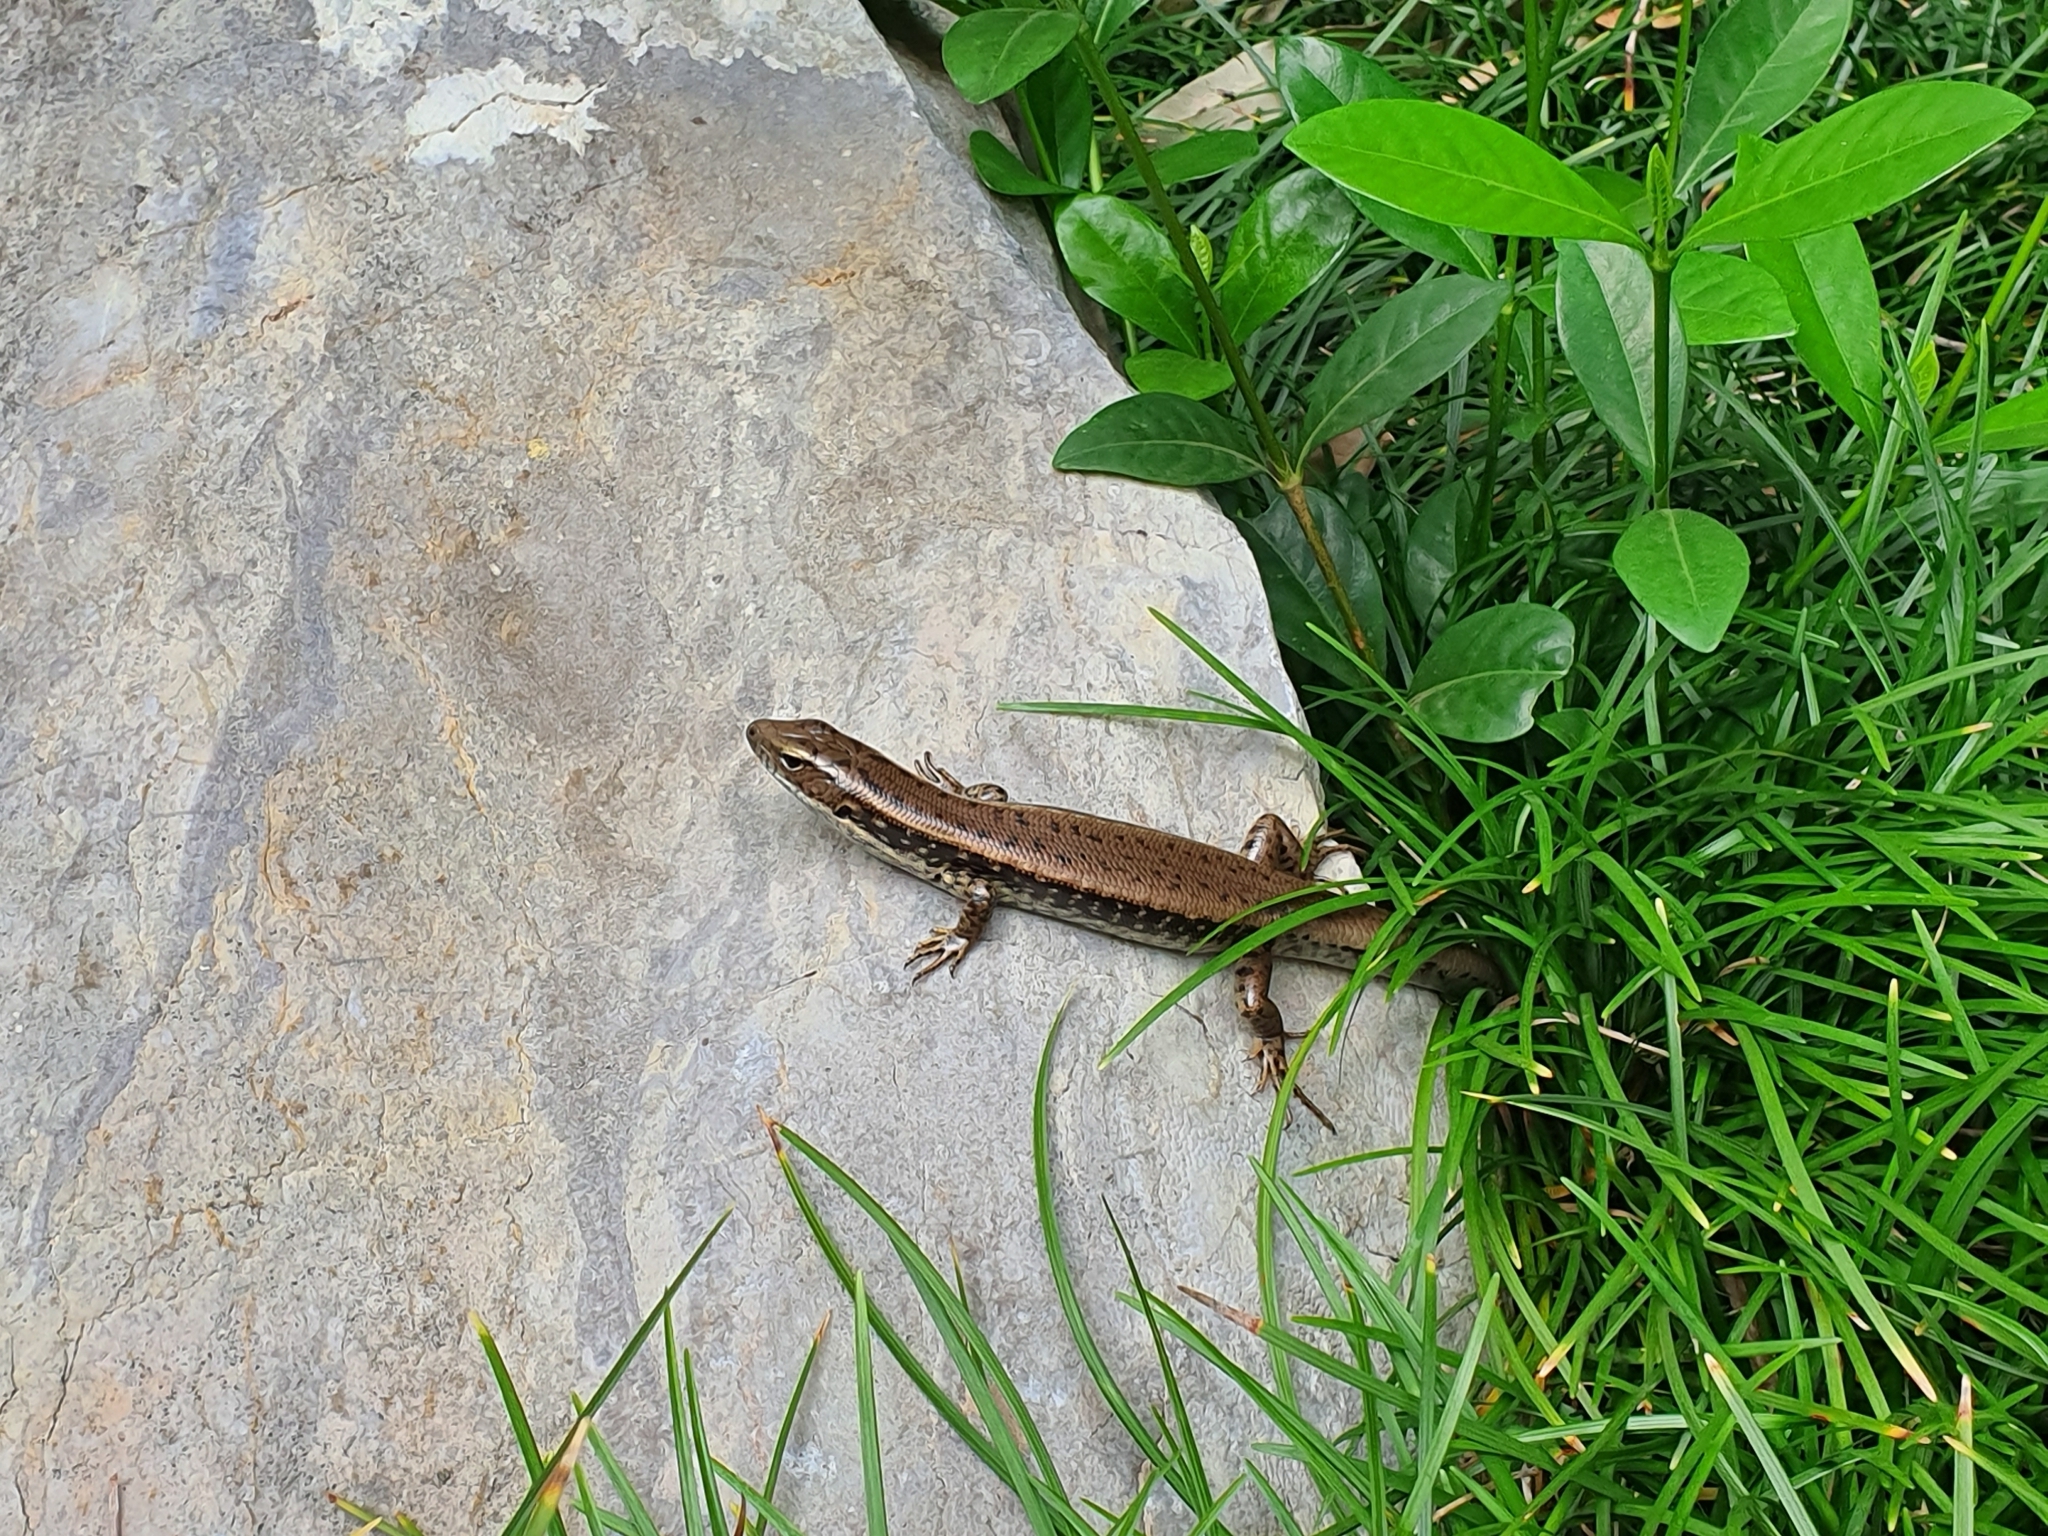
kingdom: Animalia
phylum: Chordata
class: Squamata
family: Scincidae
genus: Eulamprus
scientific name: Eulamprus quoyii
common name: Eastern water skink
